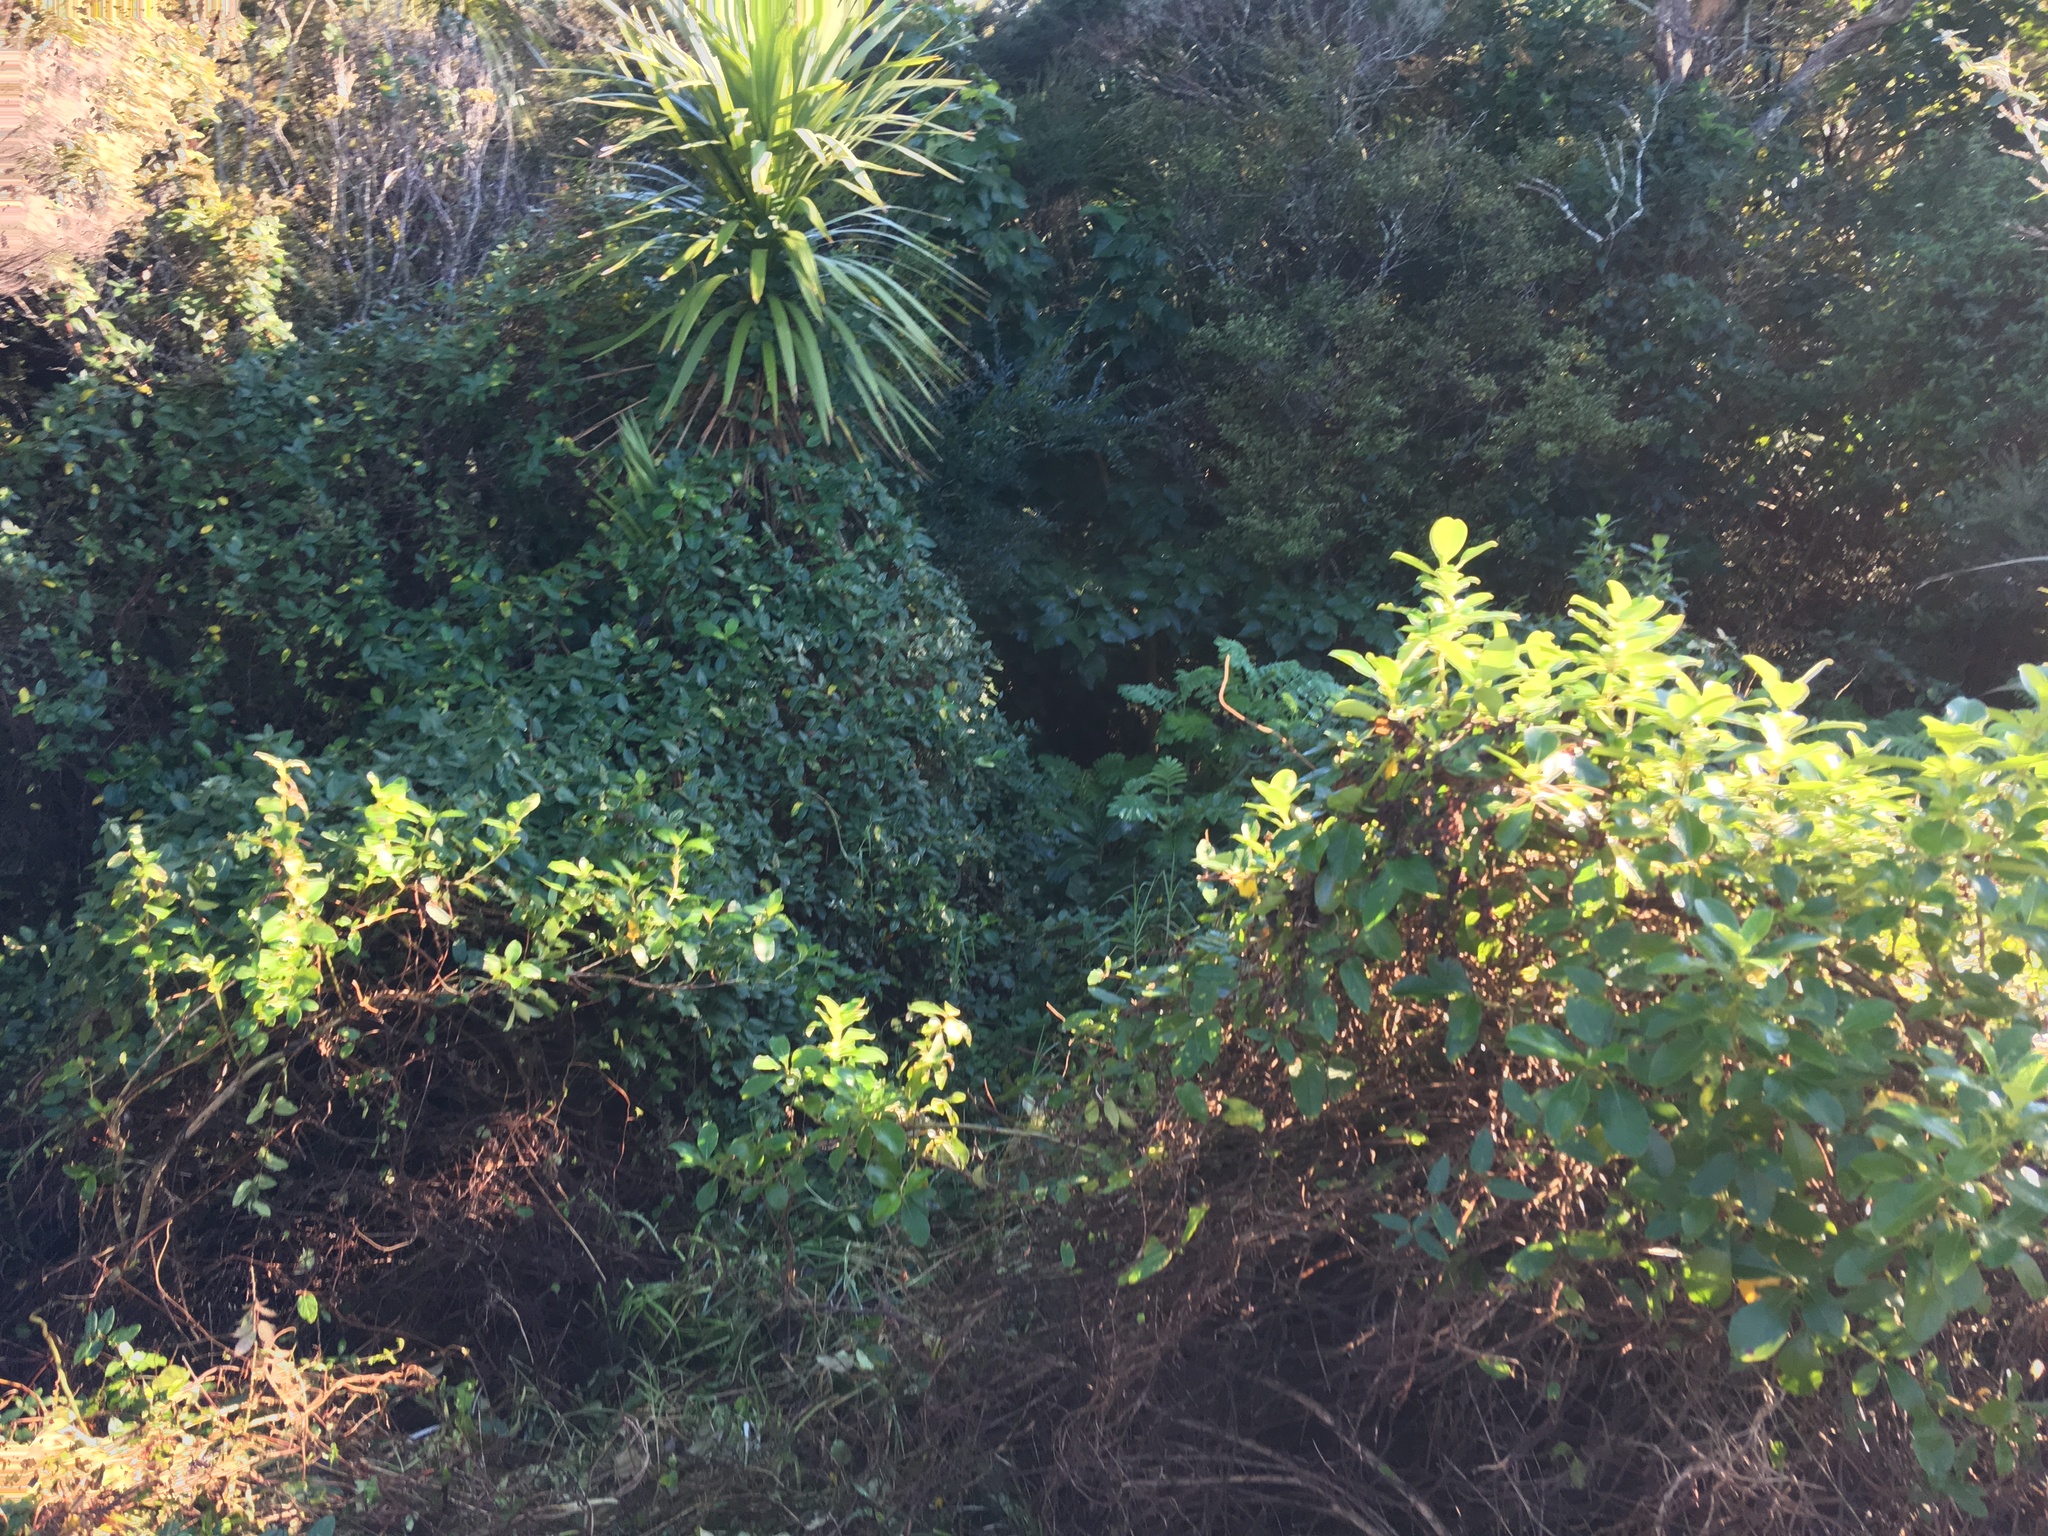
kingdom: Plantae
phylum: Tracheophyta
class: Liliopsida
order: Asparagales
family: Asparagaceae
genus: Cordyline
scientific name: Cordyline australis
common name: Cabbage-palm
